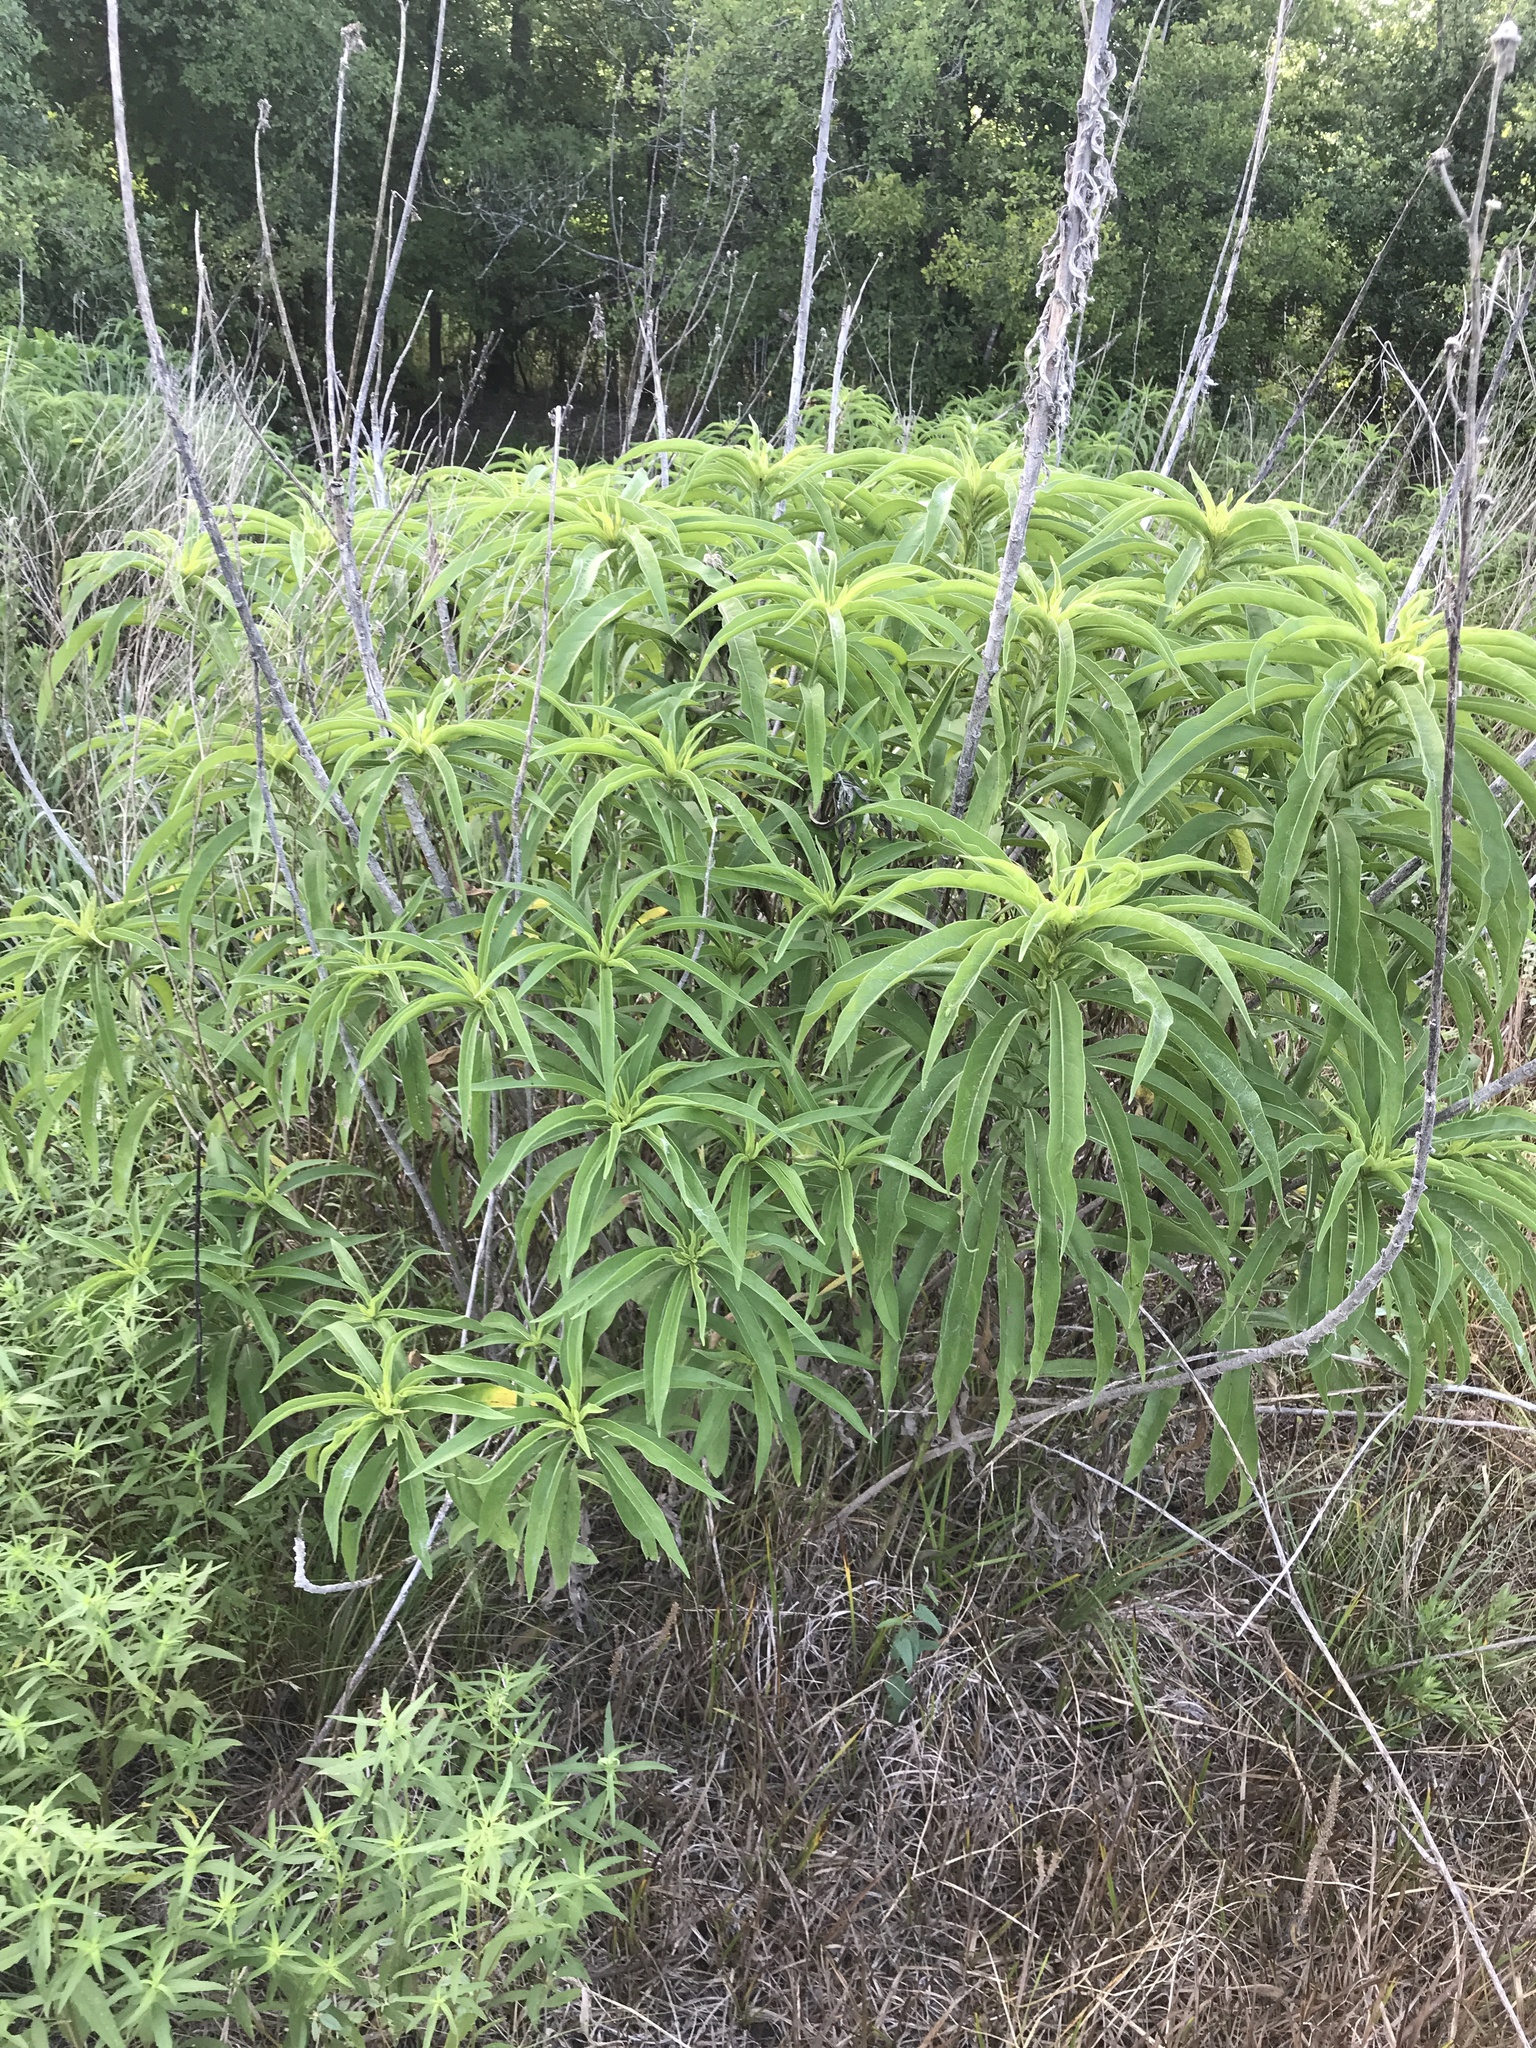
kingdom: Plantae
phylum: Tracheophyta
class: Magnoliopsida
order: Asterales
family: Asteraceae
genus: Helianthus
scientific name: Helianthus maximiliani
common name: Maximilian's sunflower
